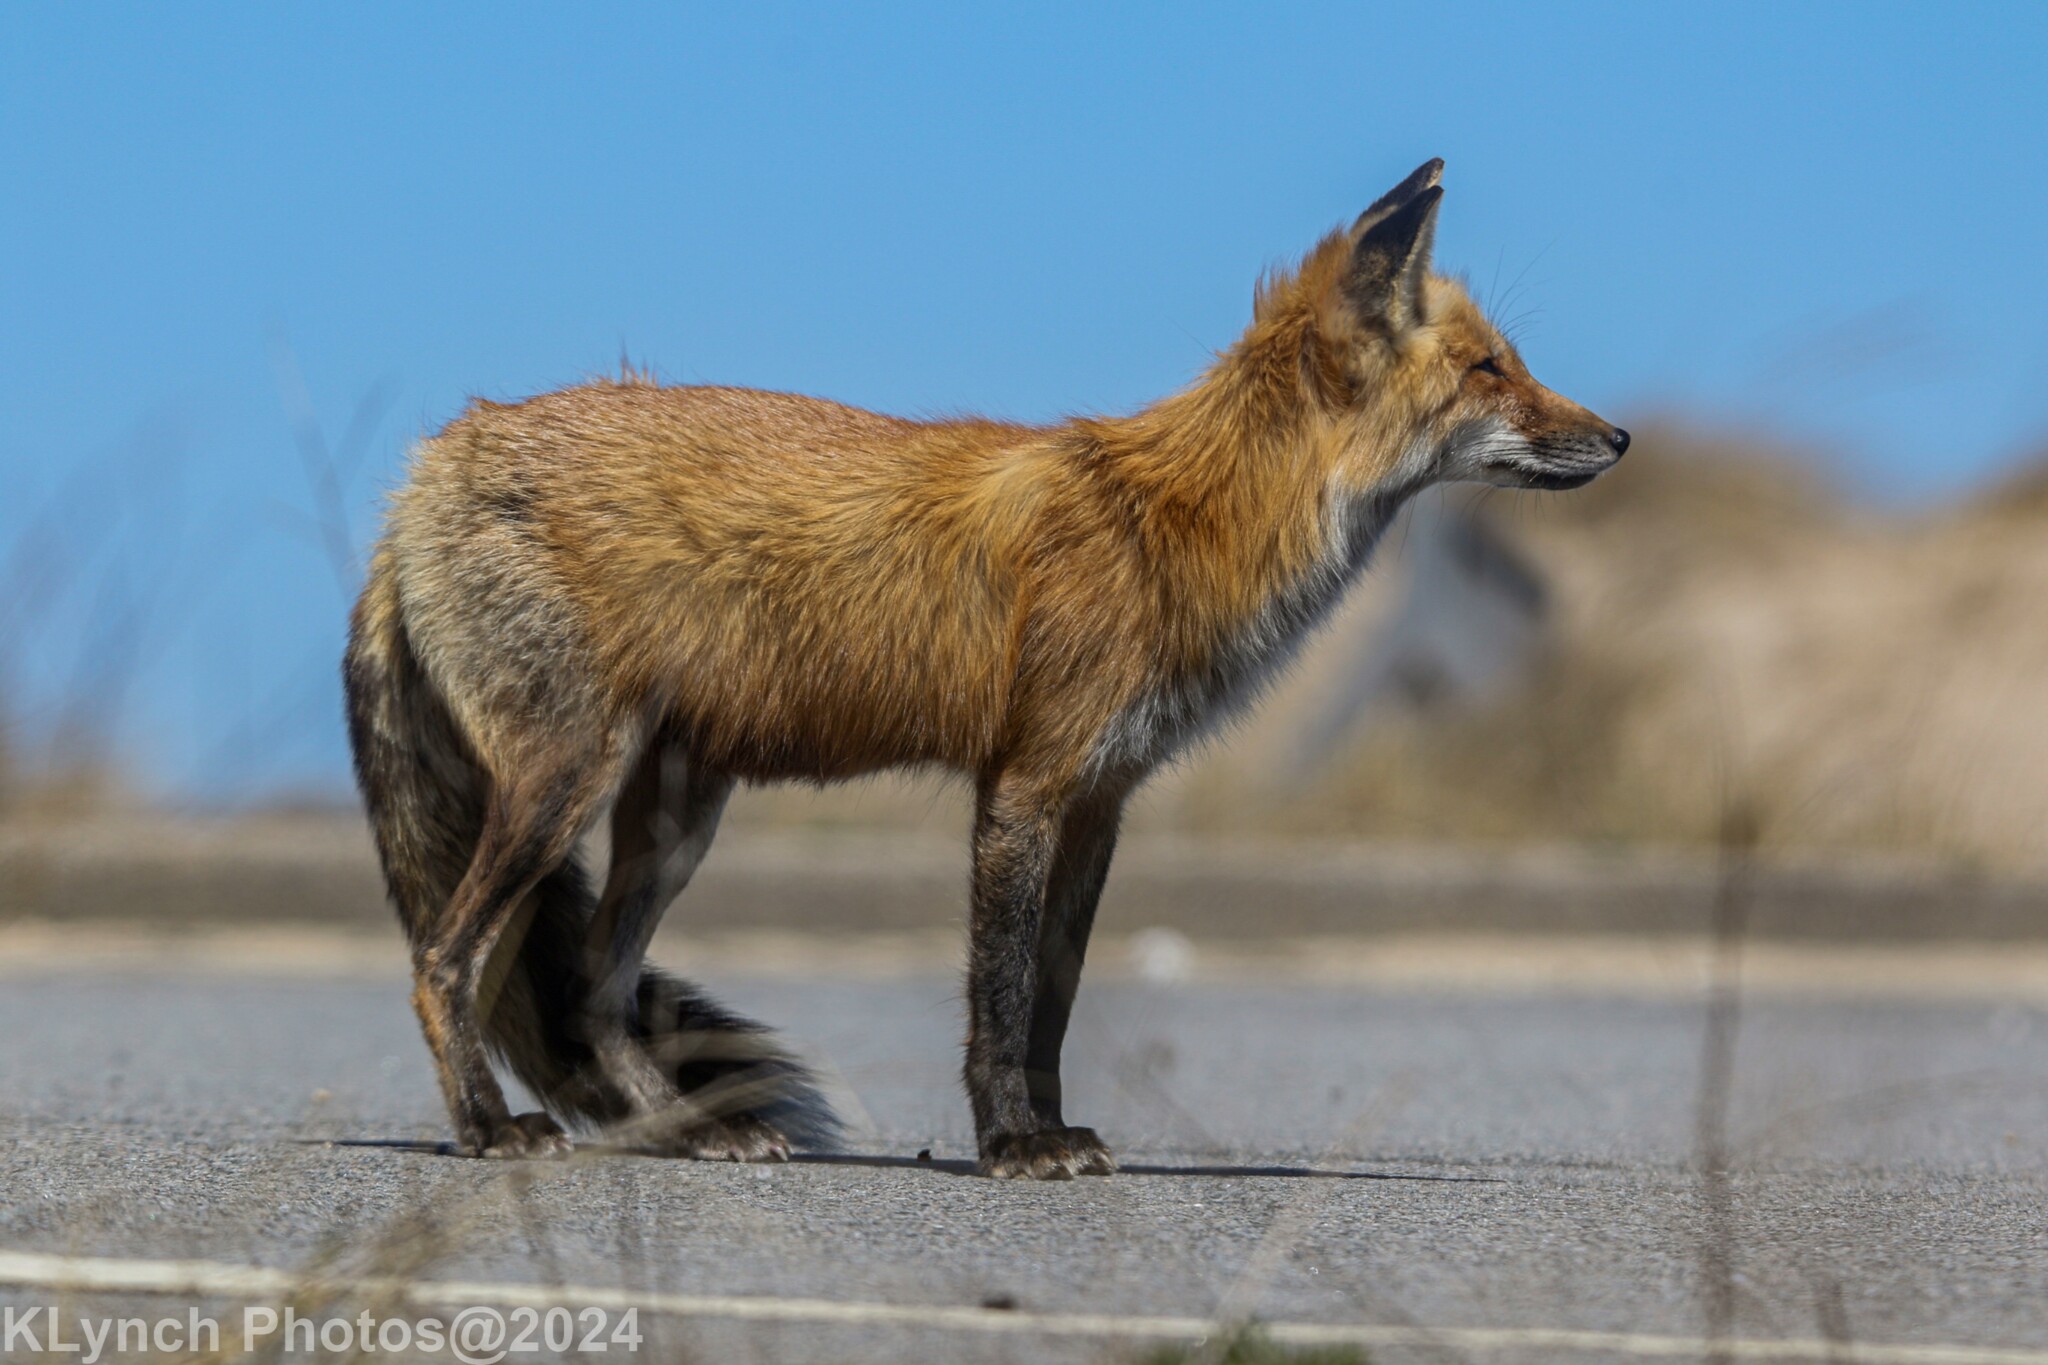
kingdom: Animalia
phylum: Chordata
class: Mammalia
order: Carnivora
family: Canidae
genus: Vulpes
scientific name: Vulpes vulpes
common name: Red fox
